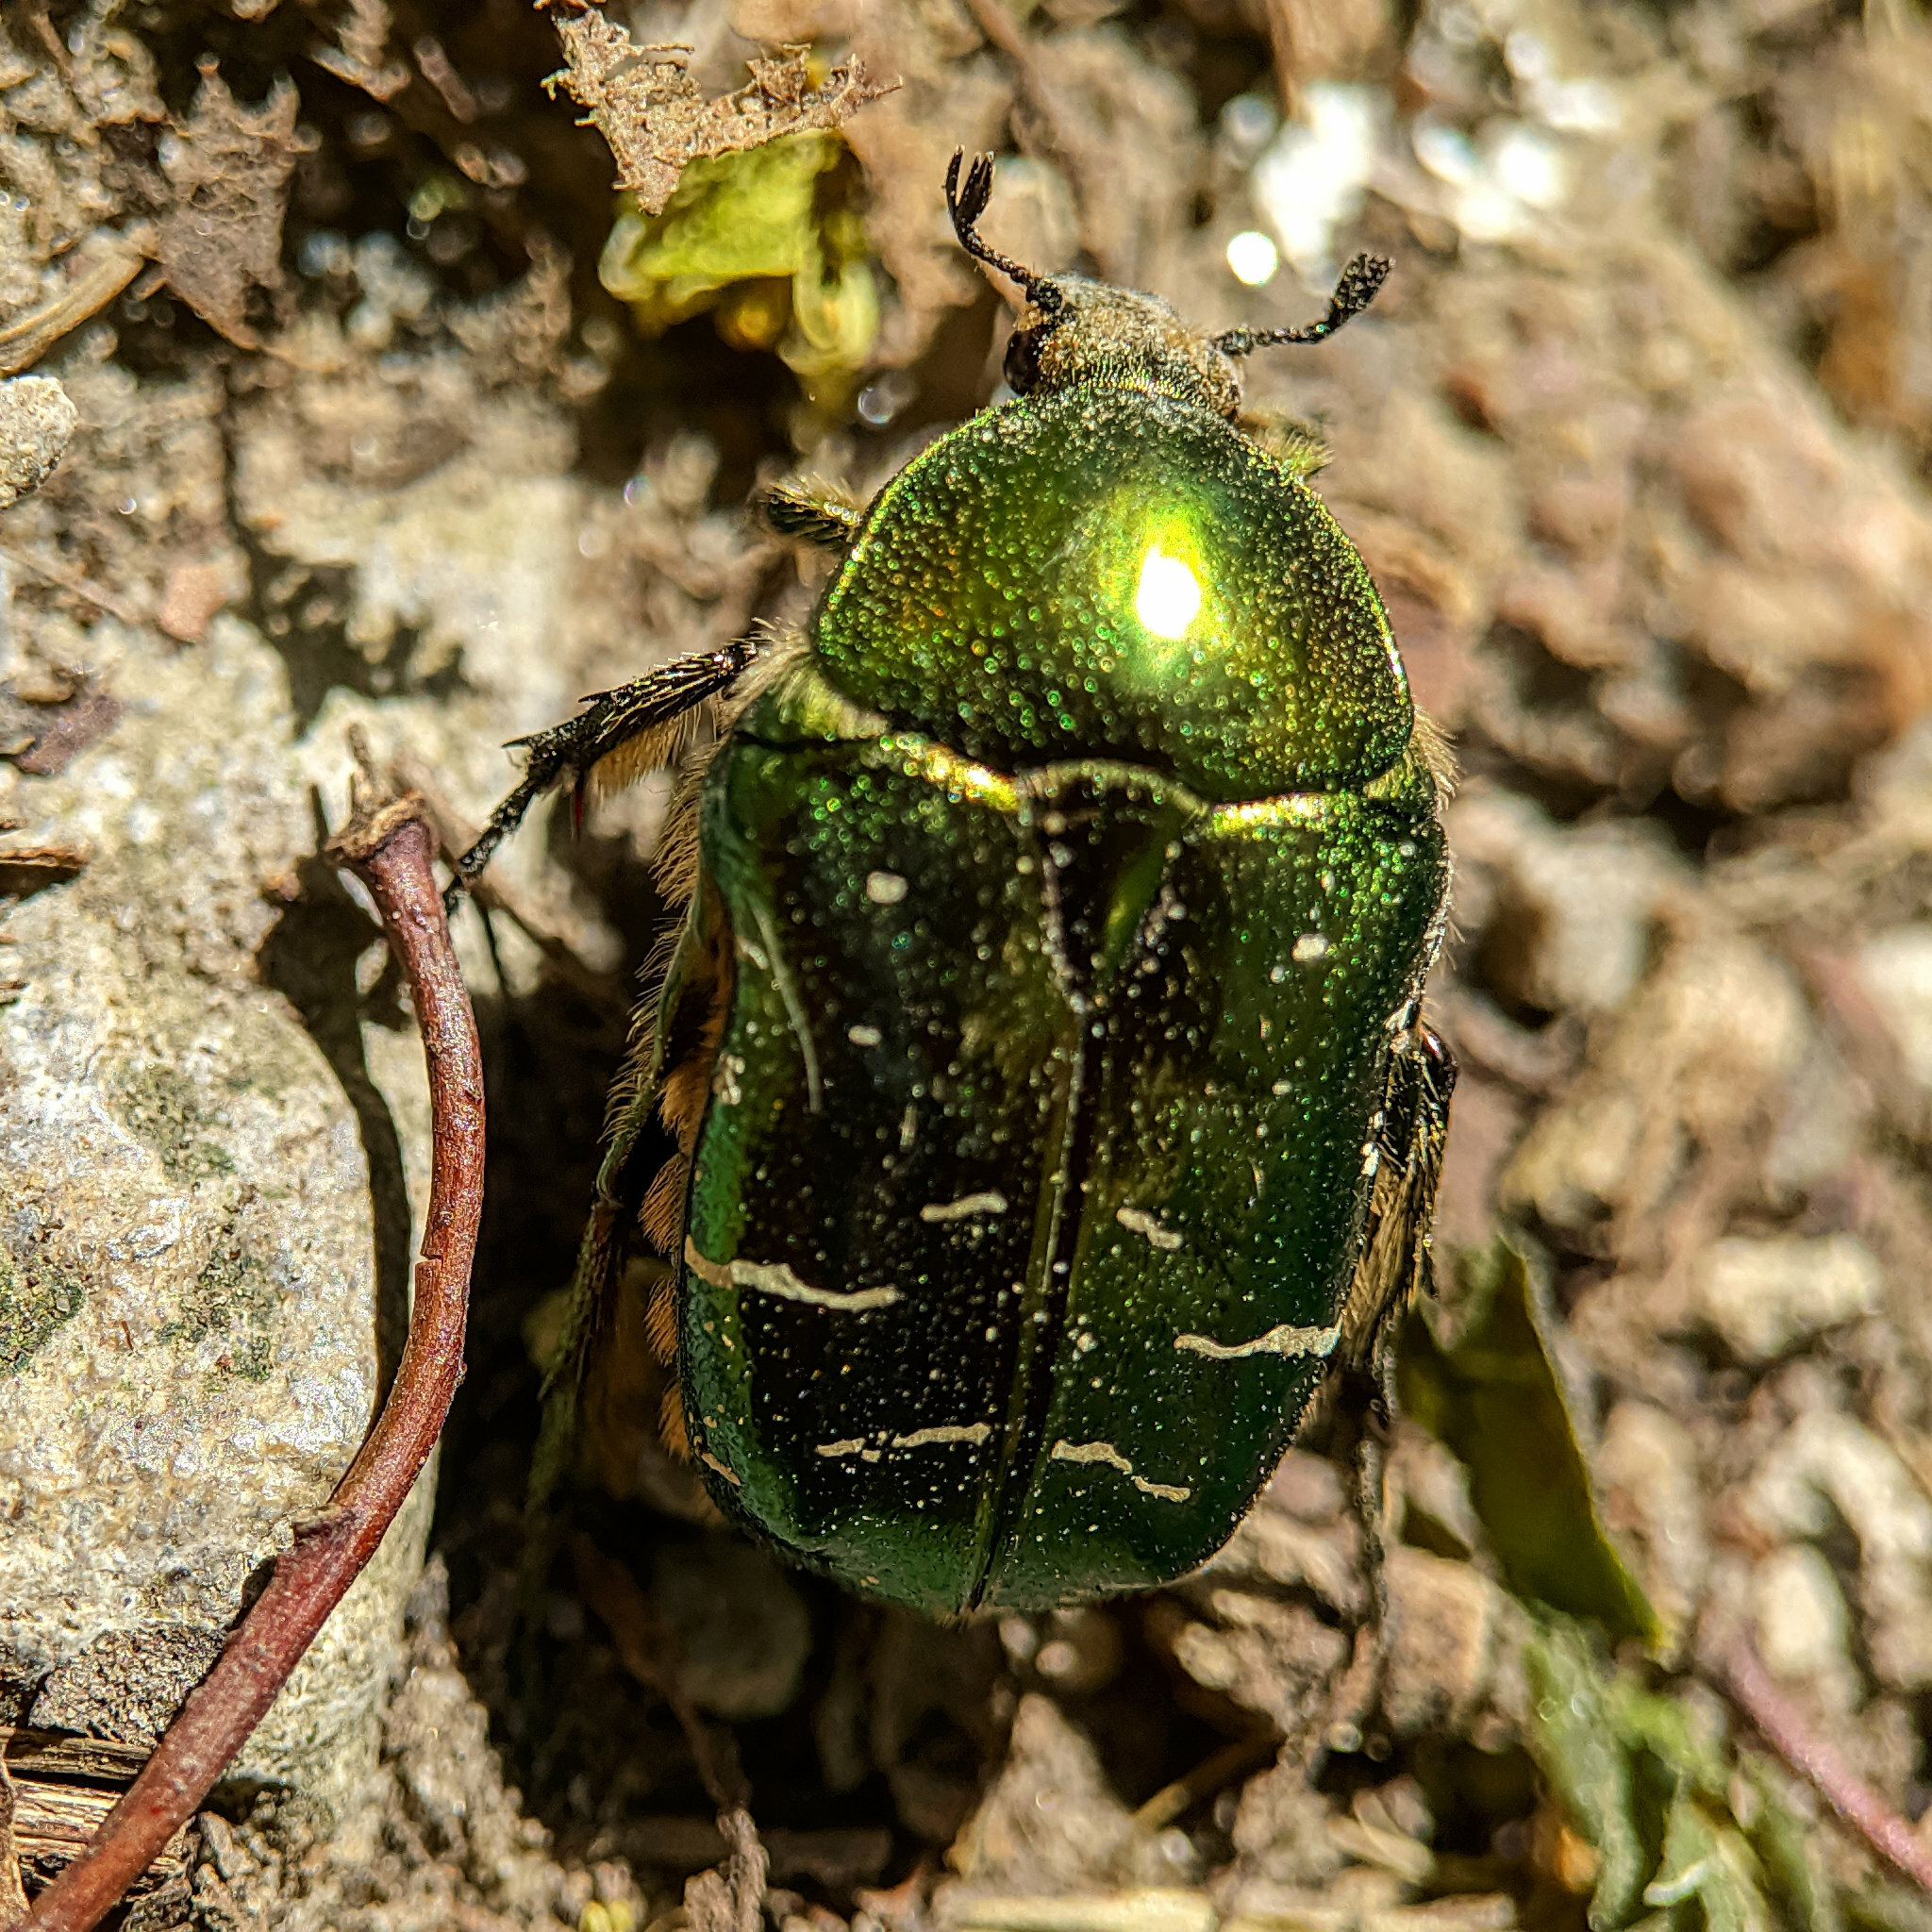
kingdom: Animalia
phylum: Arthropoda
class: Insecta
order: Coleoptera
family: Scarabaeidae
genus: Cetonia
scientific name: Cetonia aurata
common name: Rose chafer
